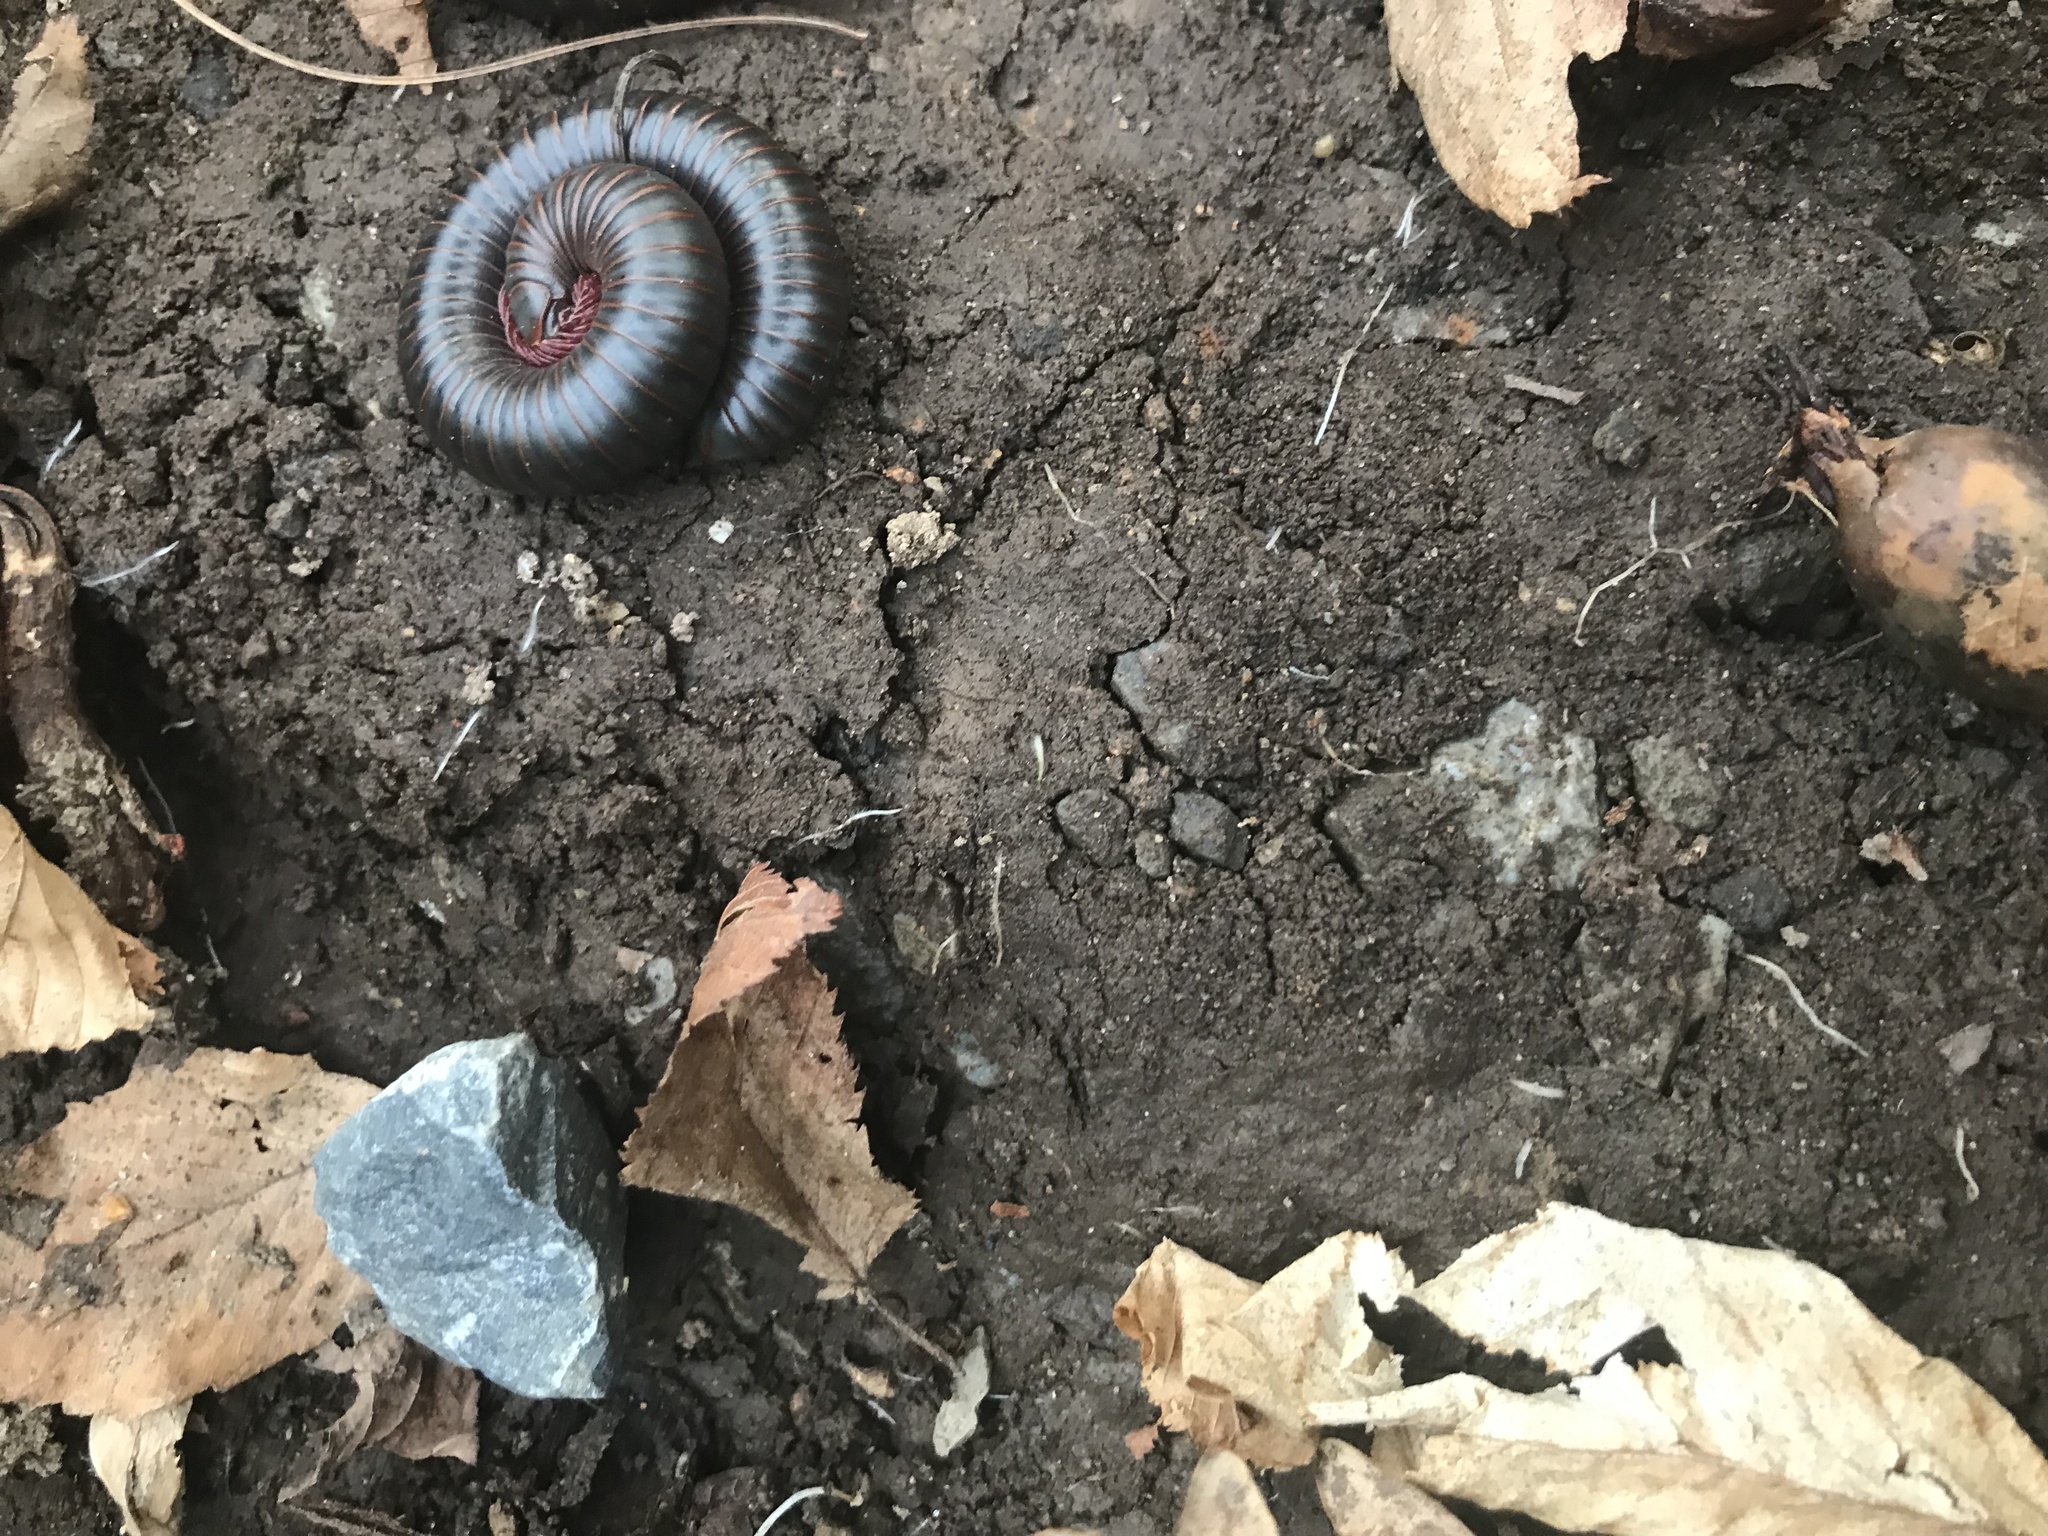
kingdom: Animalia
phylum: Arthropoda
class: Diplopoda
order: Spirobolida
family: Spirobolidae
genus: Narceus
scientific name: Narceus
